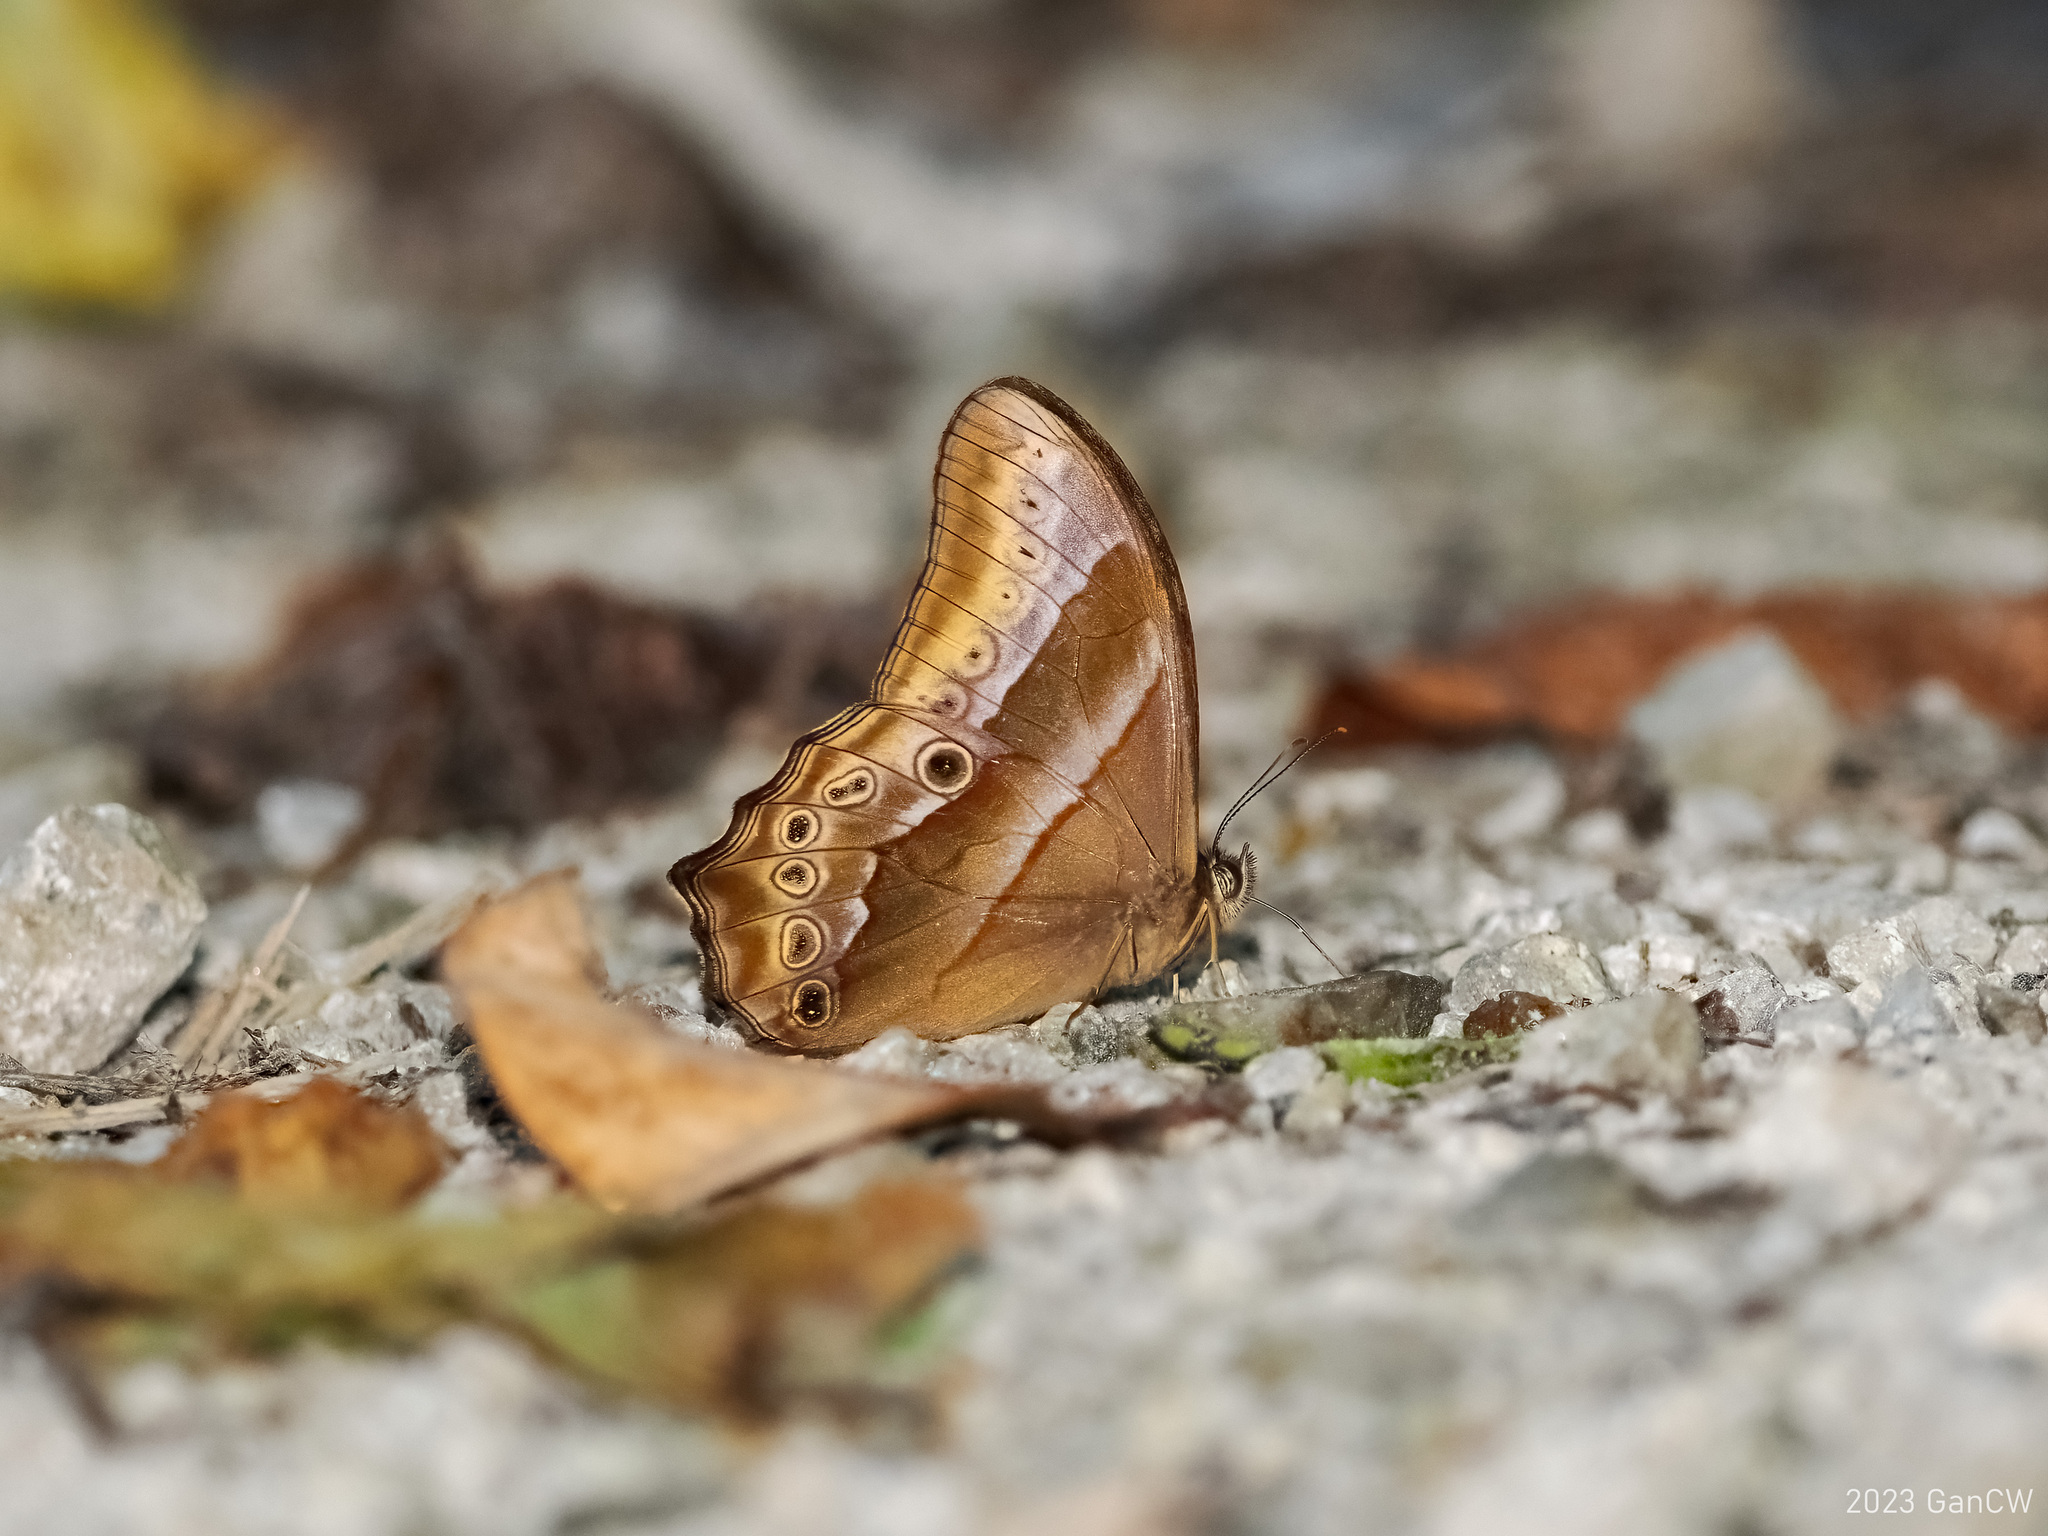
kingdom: Animalia
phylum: Arthropoda
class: Insecta
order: Lepidoptera
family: Nymphalidae
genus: Lethe
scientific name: Lethe mekara
